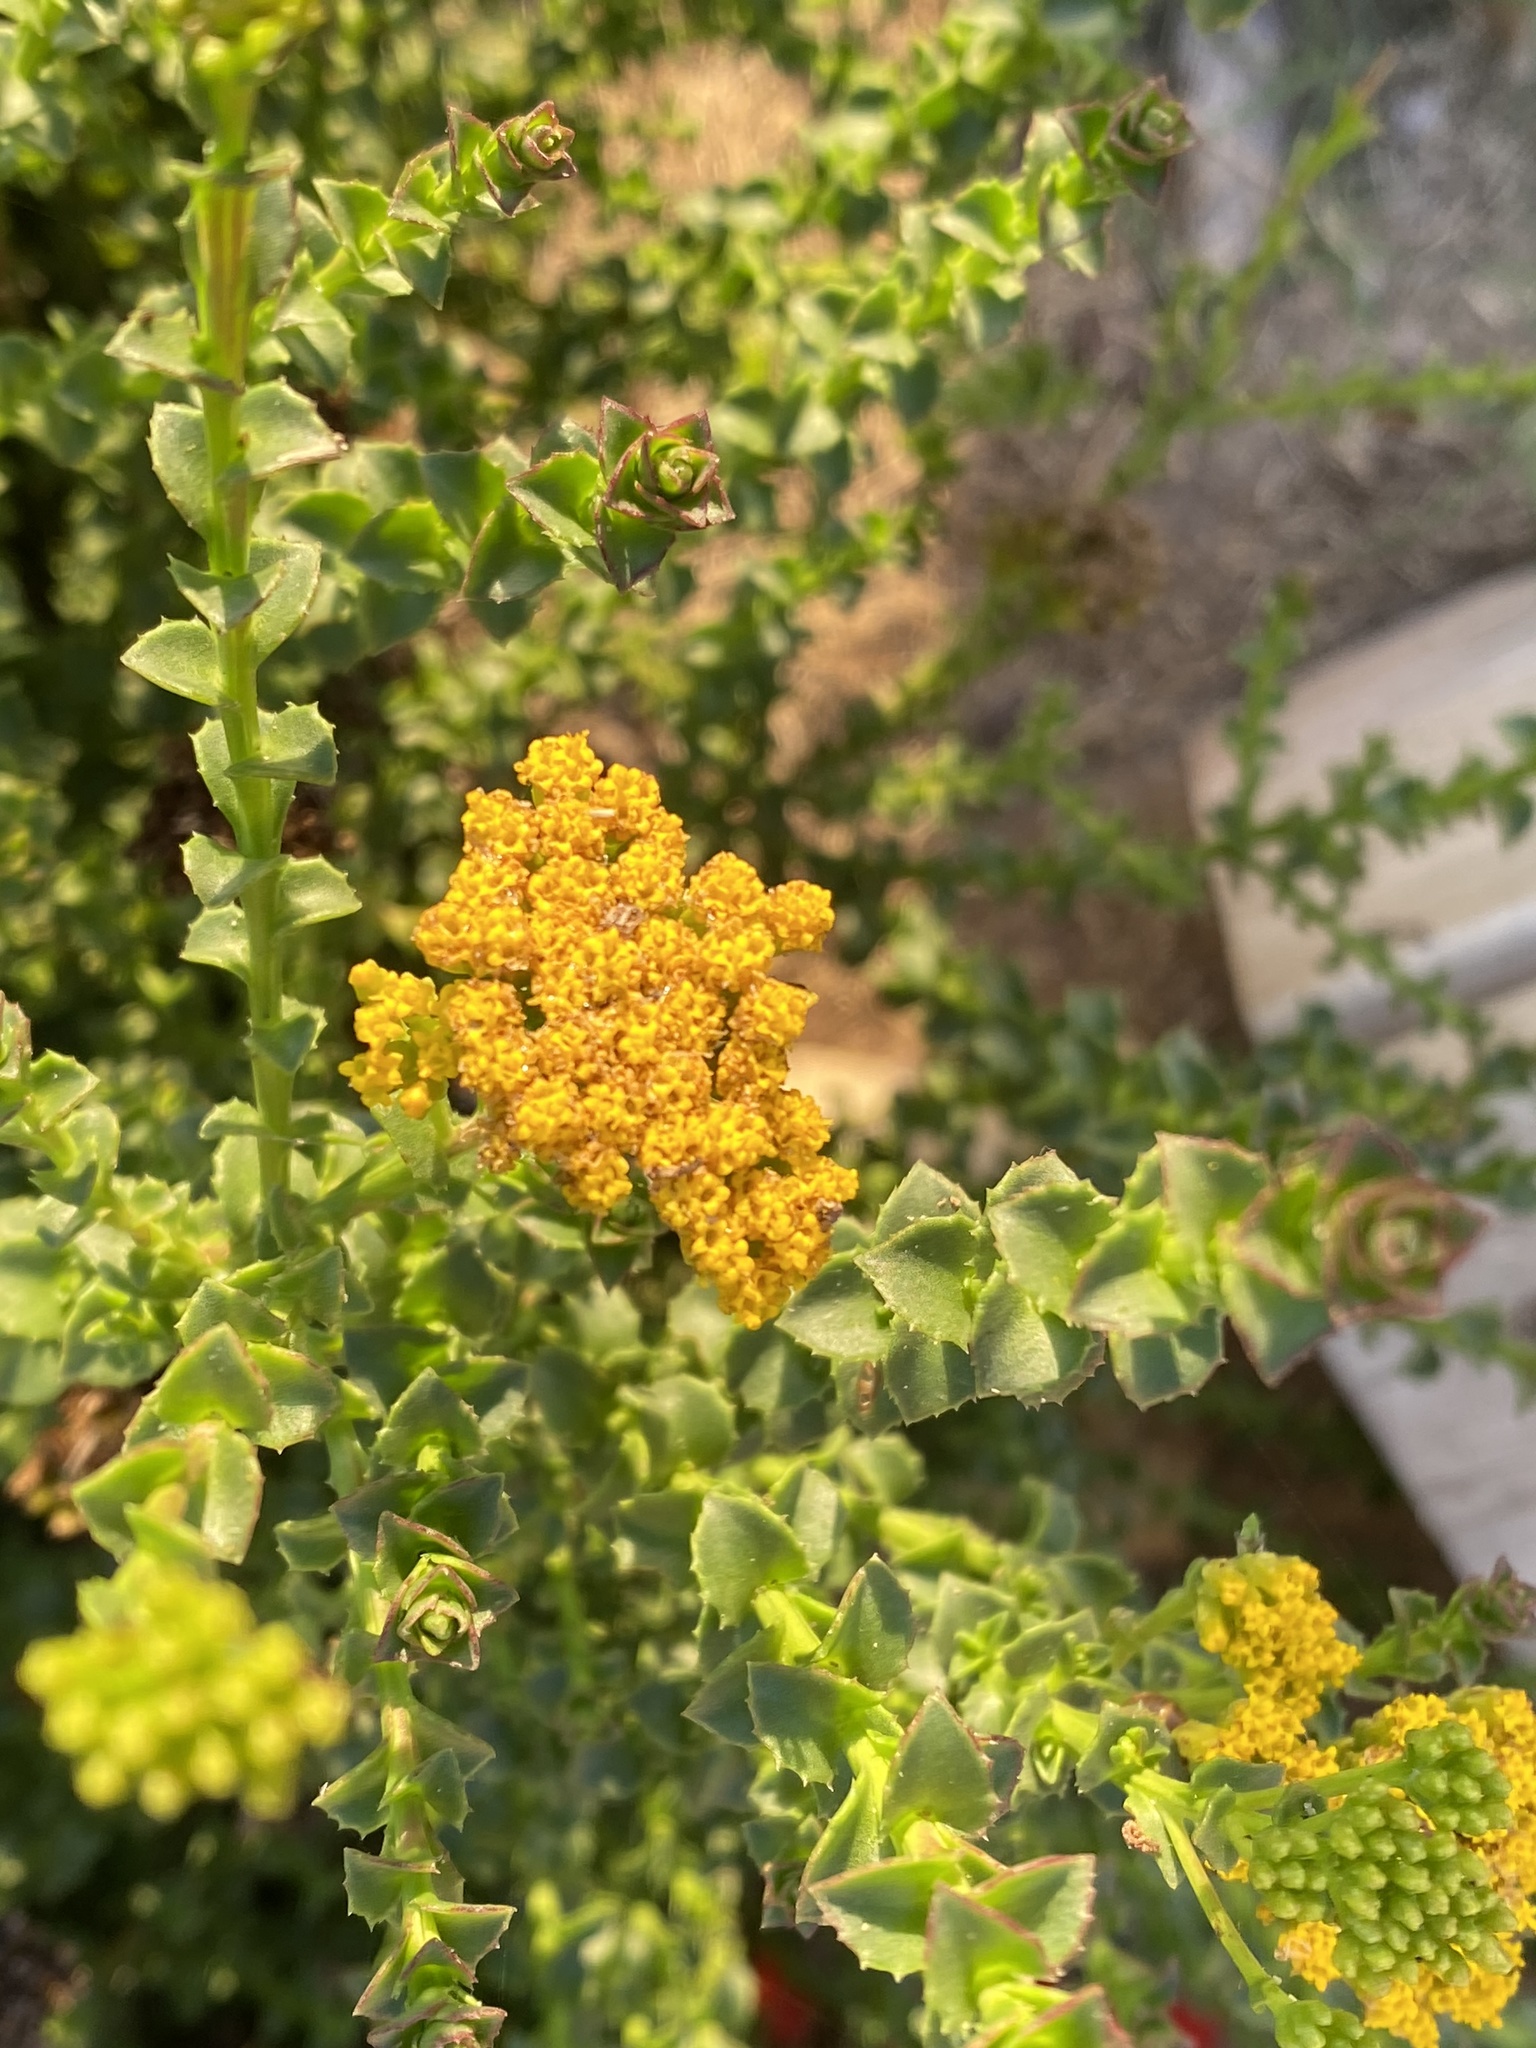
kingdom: Plantae
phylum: Tracheophyta
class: Magnoliopsida
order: Asterales
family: Asteraceae
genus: Athanasia
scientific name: Athanasia dentata
